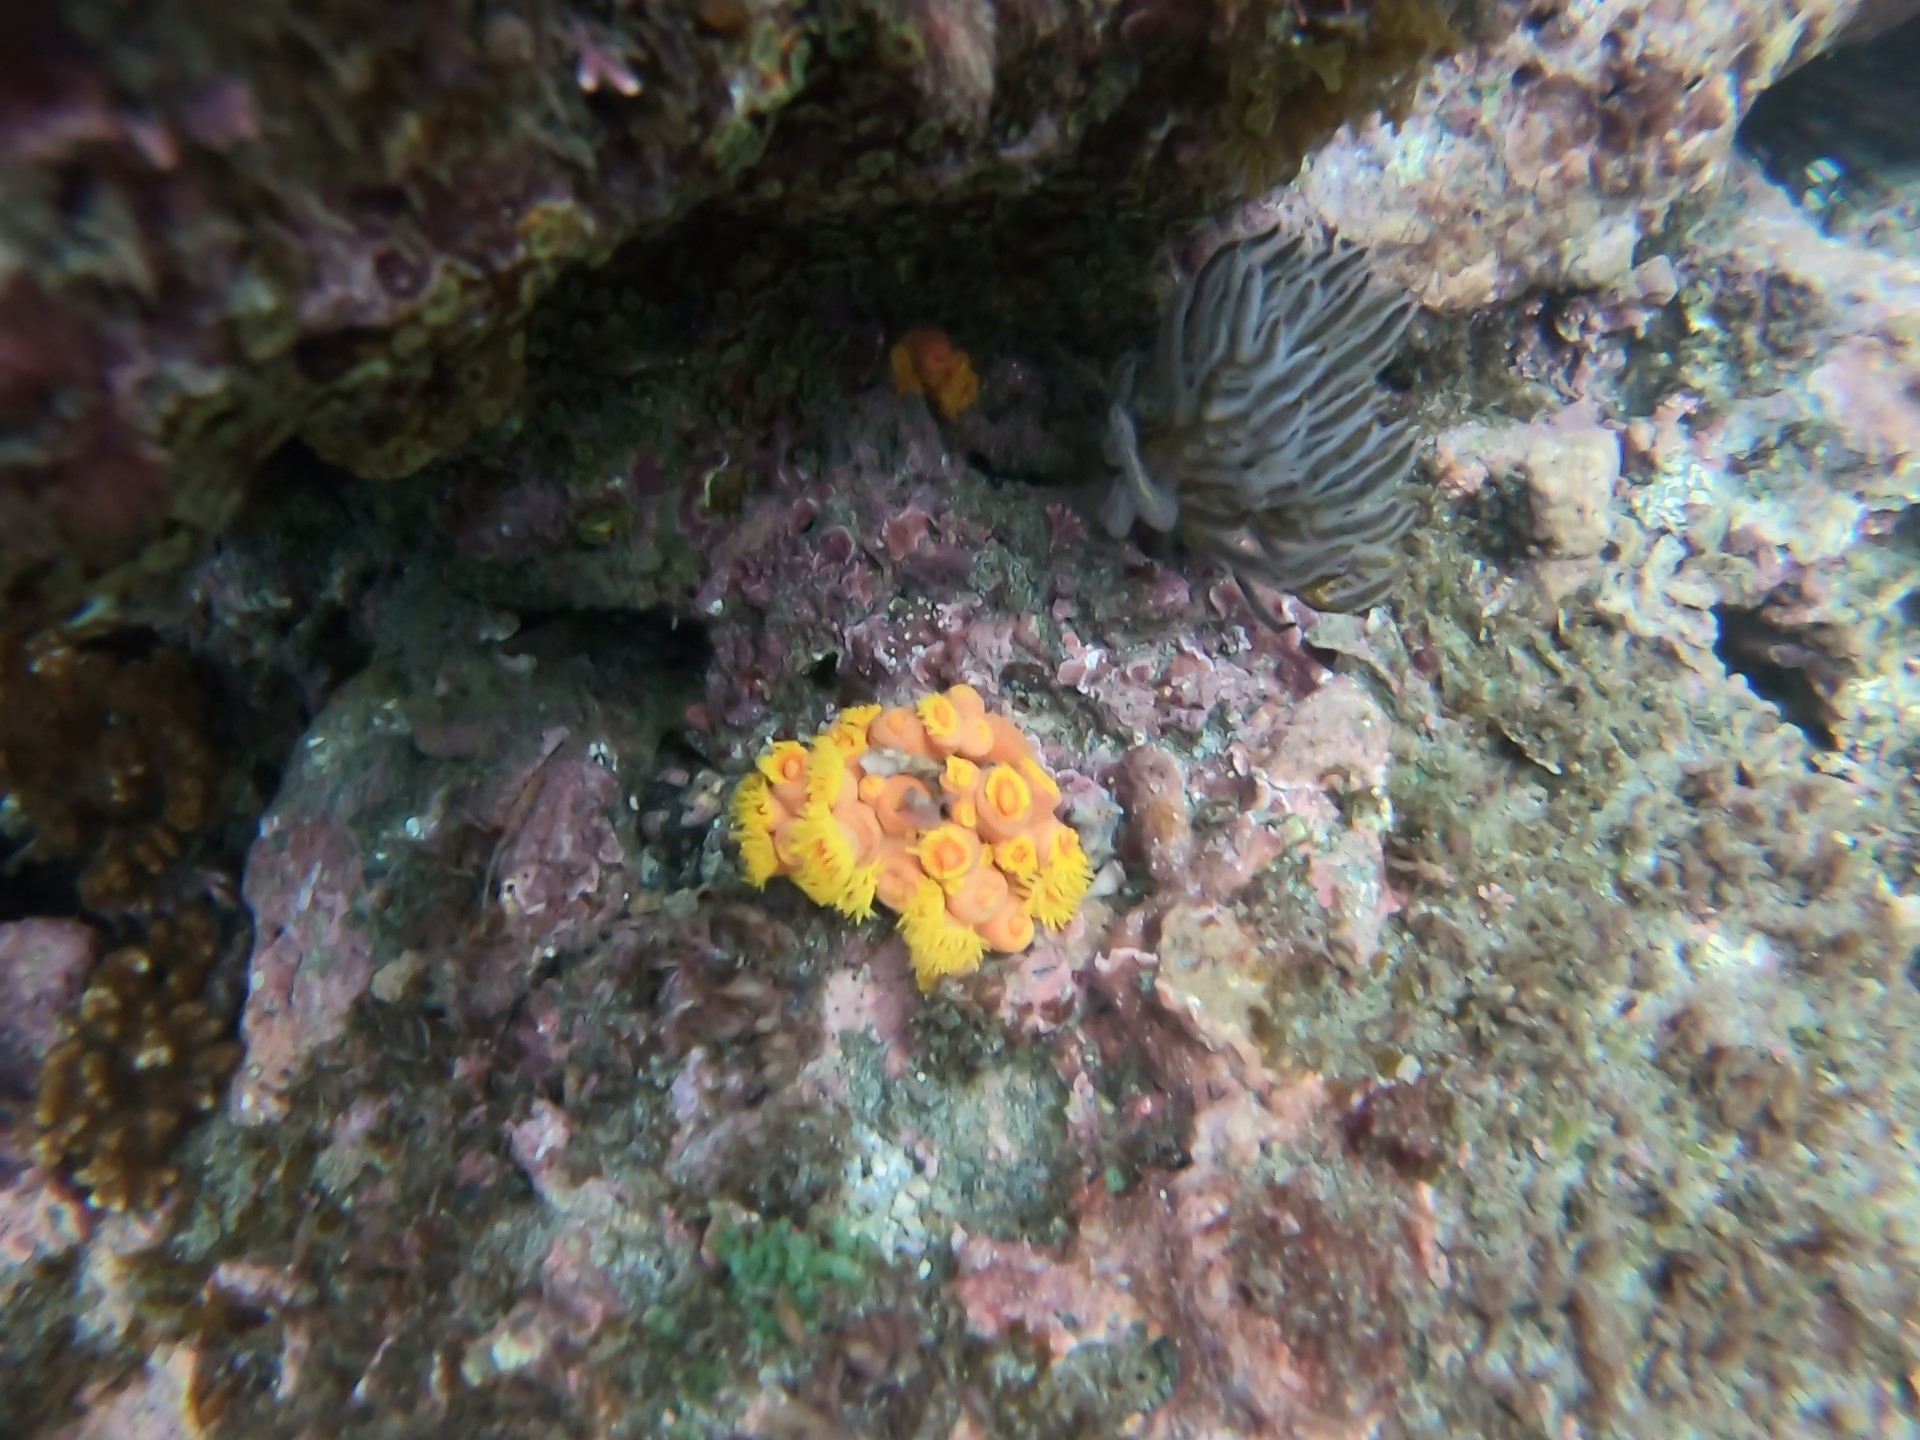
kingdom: Animalia
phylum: Cnidaria
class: Anthozoa
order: Scleractinia
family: Dendrophylliidae
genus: Tubastraea
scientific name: Tubastraea coccinea
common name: Orange cup coral
